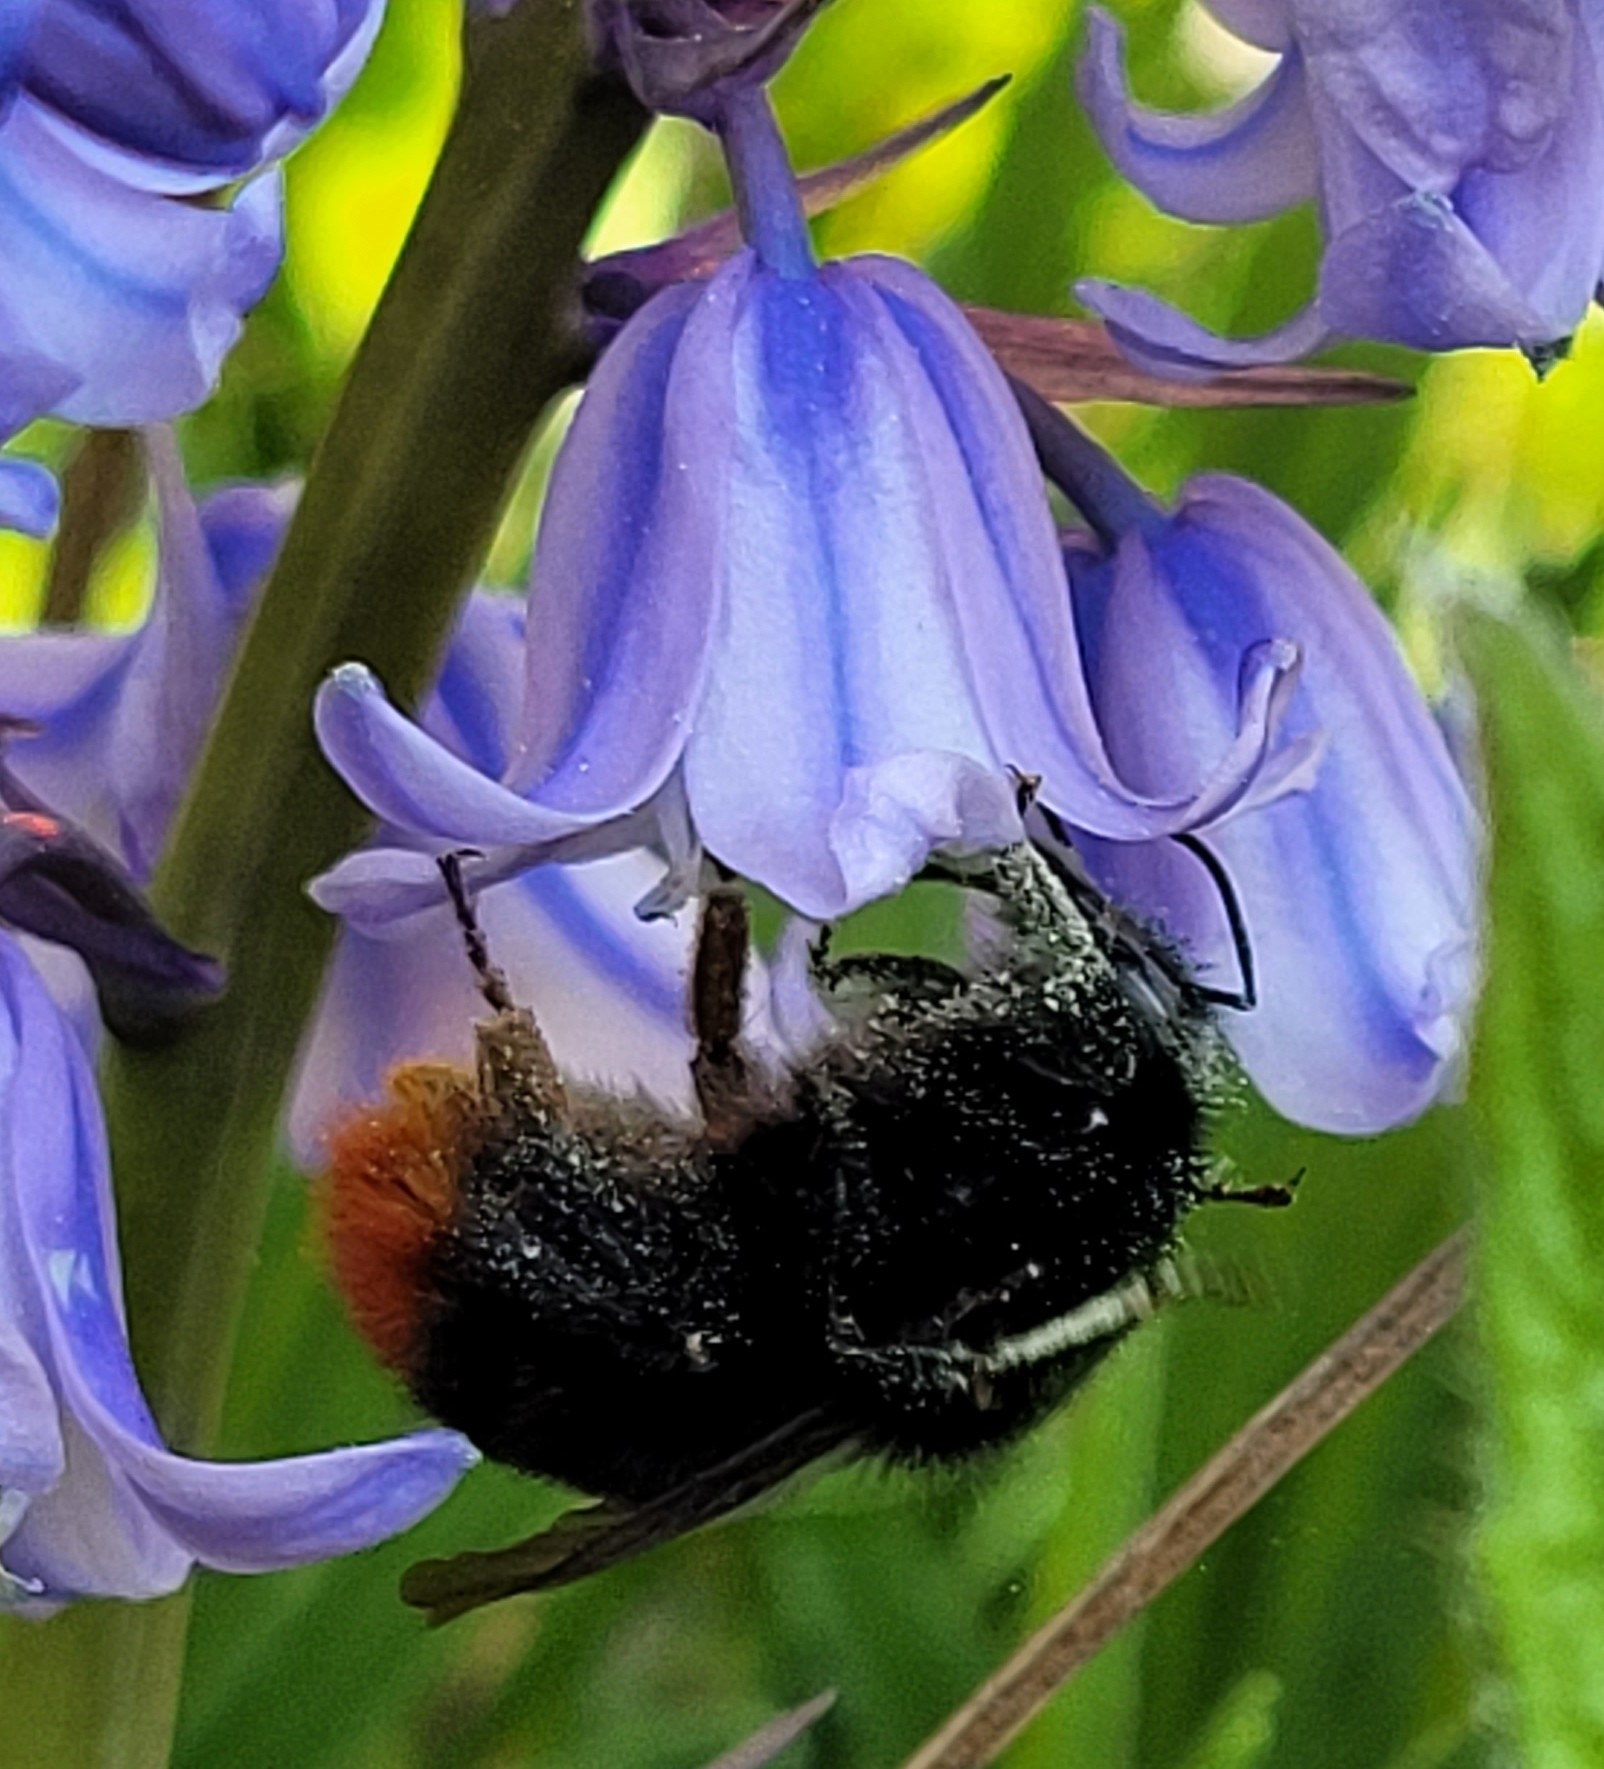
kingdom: Animalia
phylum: Arthropoda
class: Insecta
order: Hymenoptera
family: Apidae
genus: Bombus
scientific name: Bombus lapidarius
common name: Large red-tailed humble-bee
